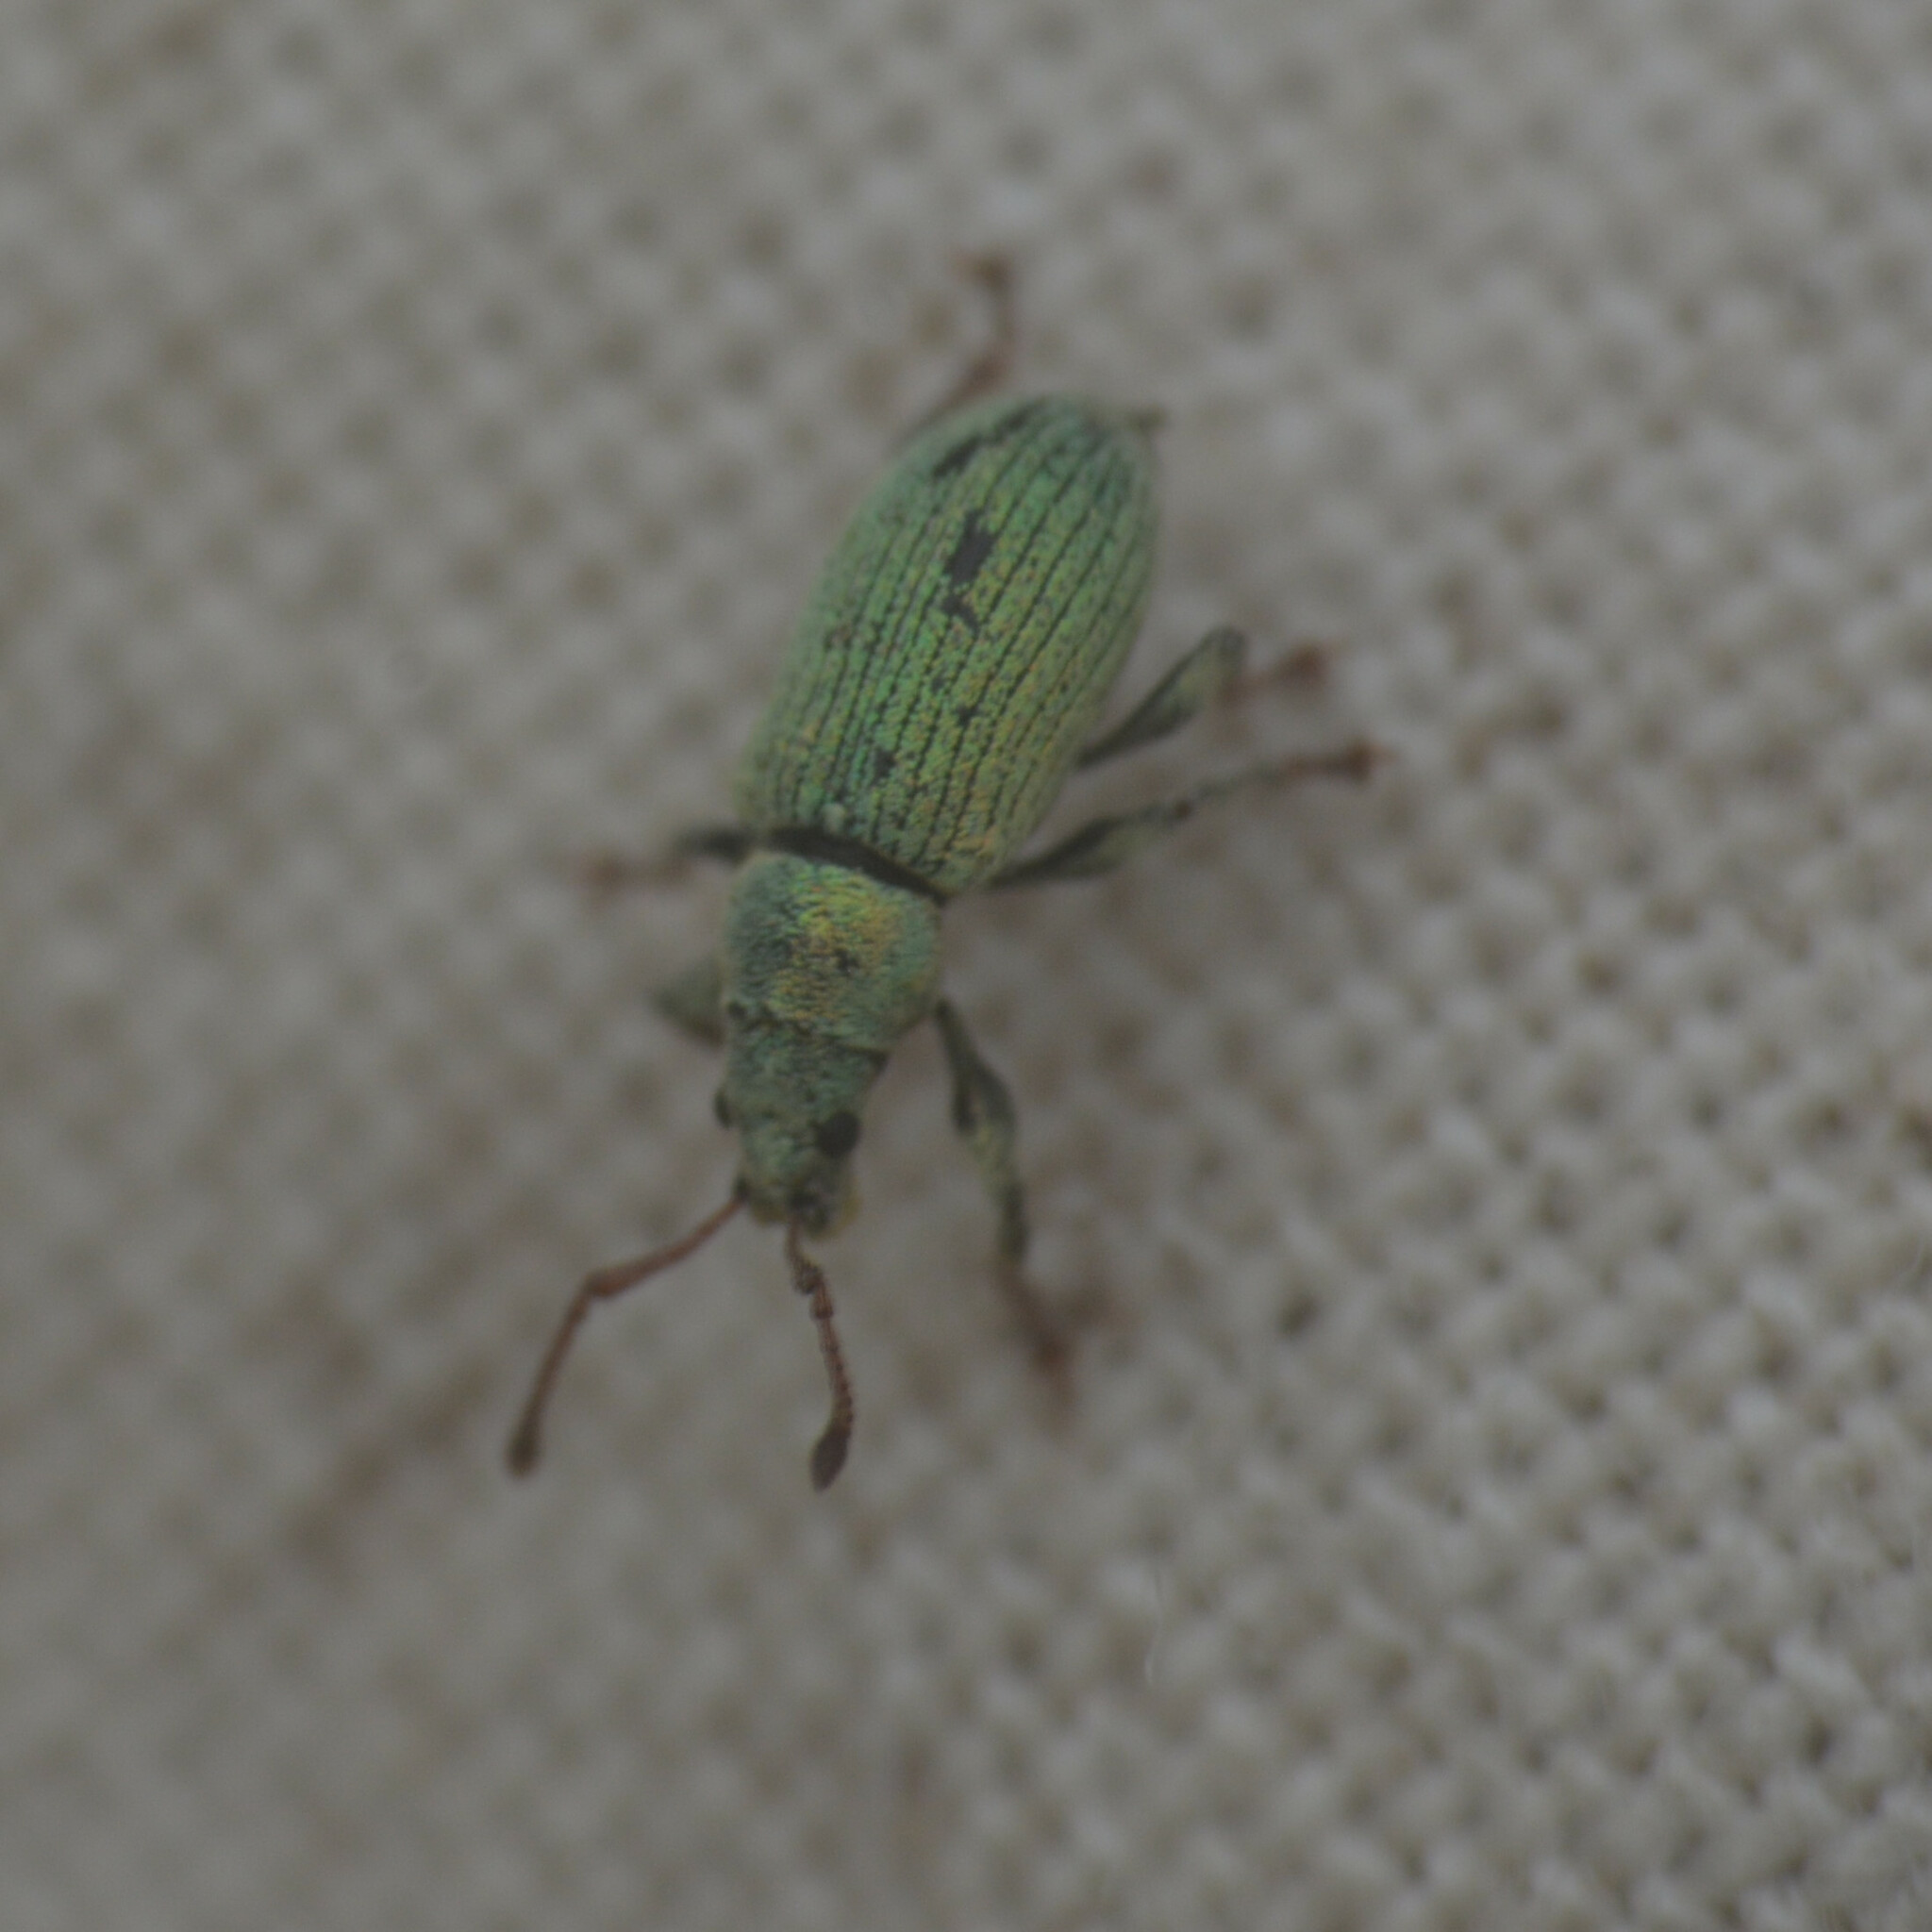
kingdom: Animalia
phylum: Arthropoda
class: Insecta
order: Coleoptera
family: Curculionidae
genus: Phyllobius
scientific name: Phyllobius
